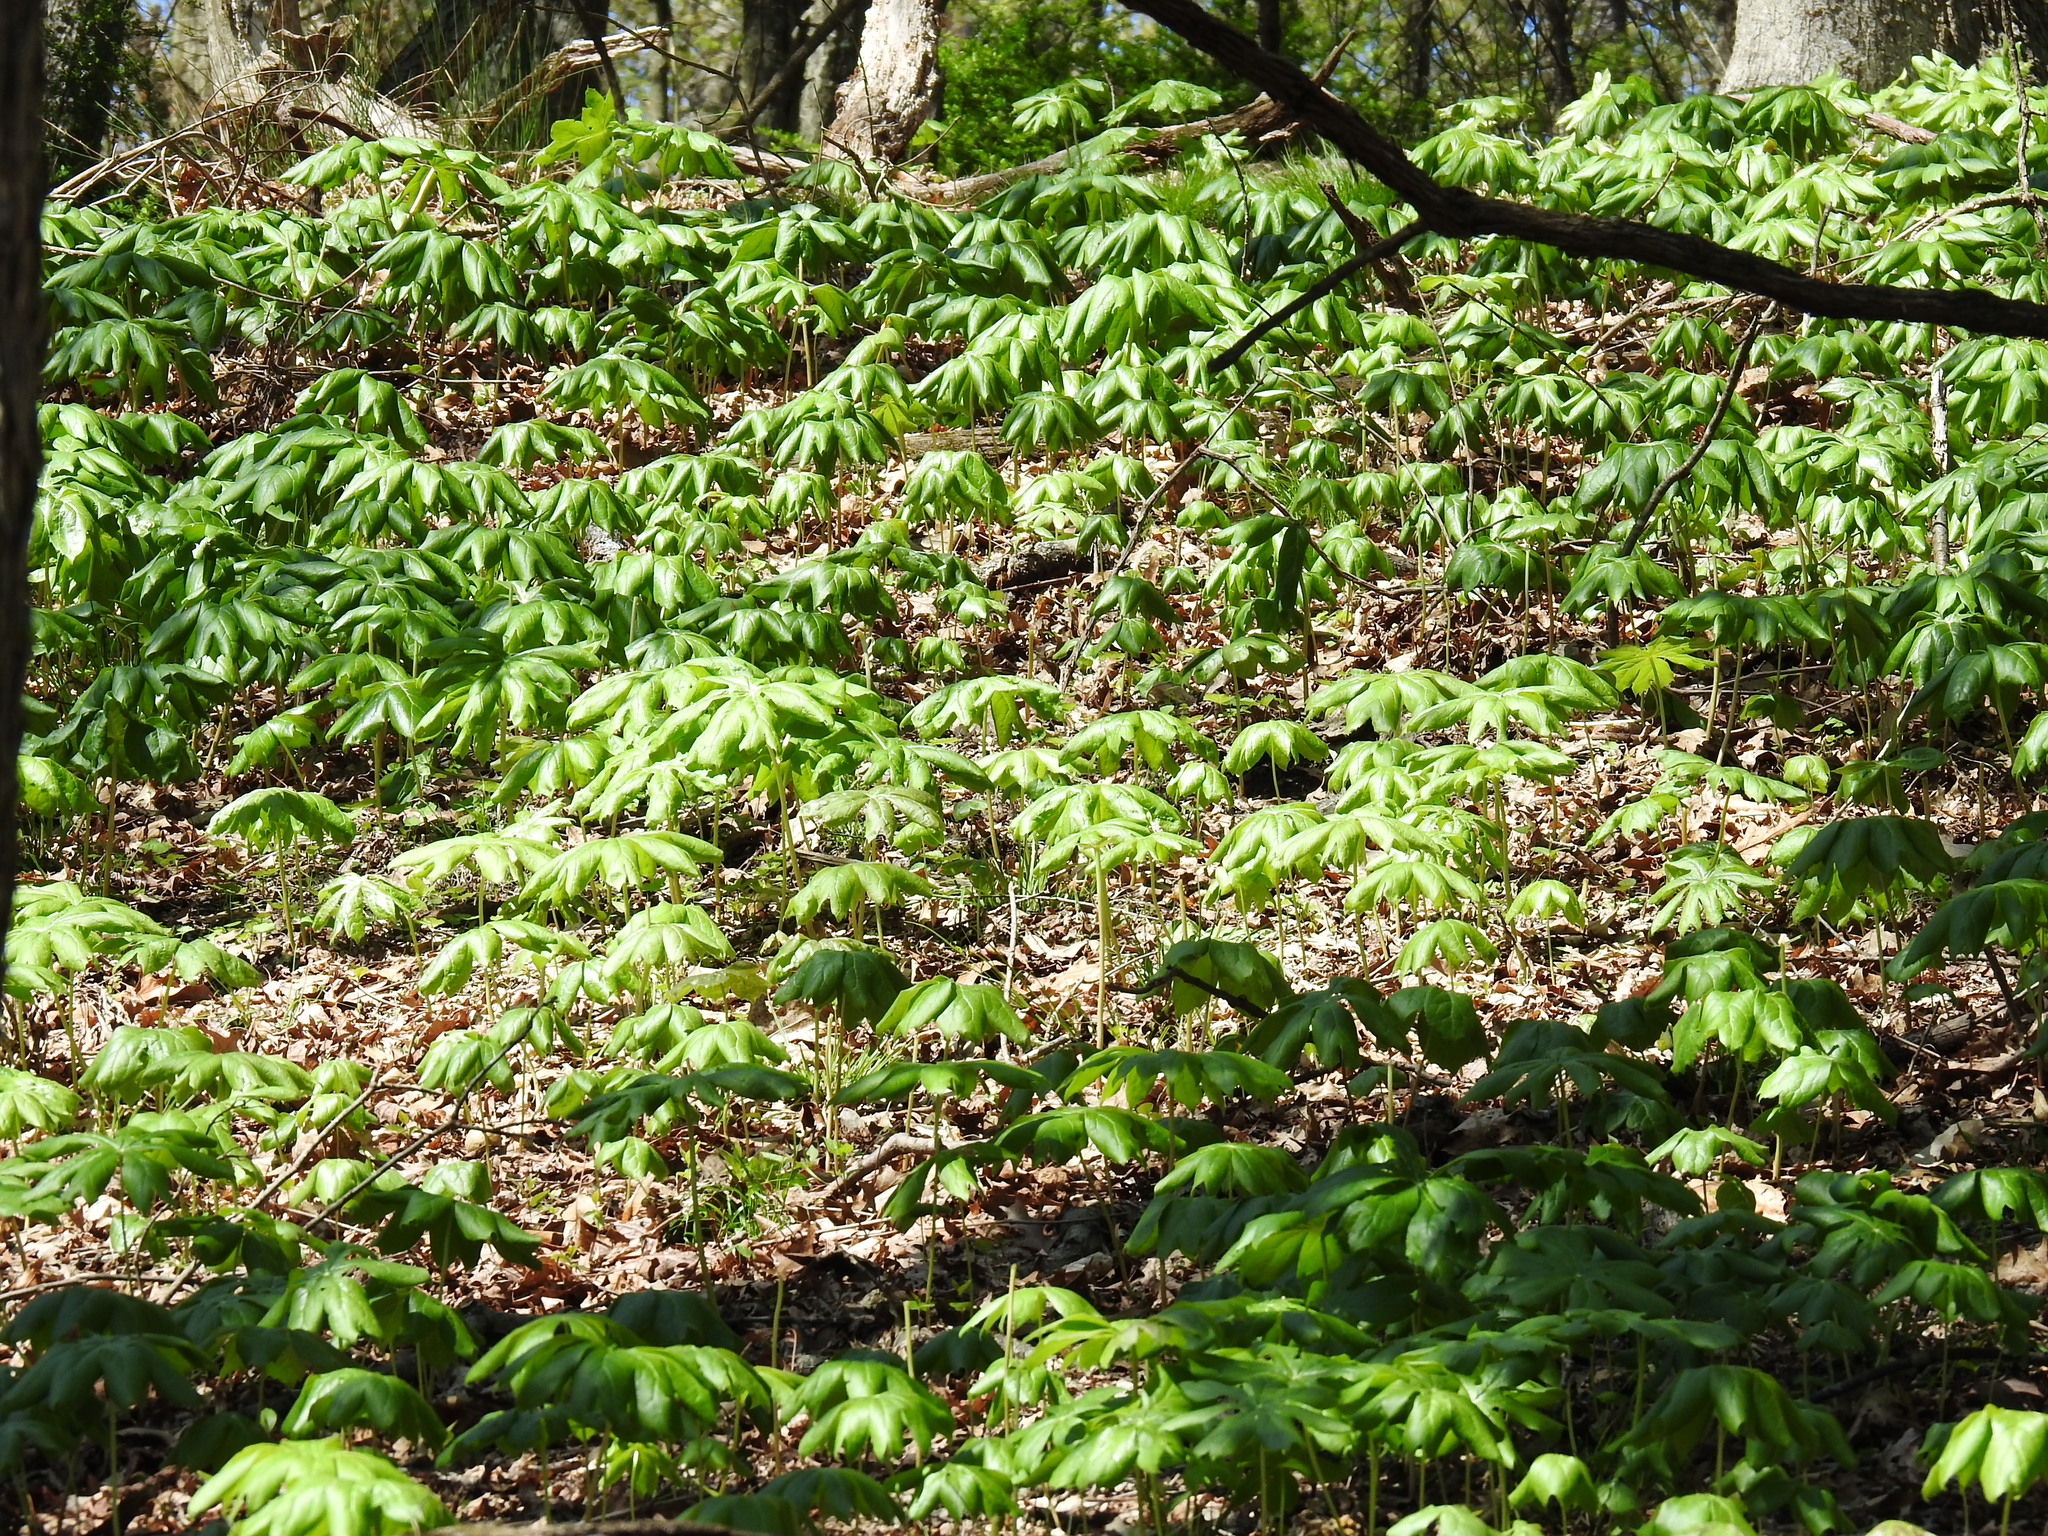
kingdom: Plantae
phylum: Tracheophyta
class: Magnoliopsida
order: Ranunculales
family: Berberidaceae
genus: Podophyllum
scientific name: Podophyllum peltatum
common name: Wild mandrake
